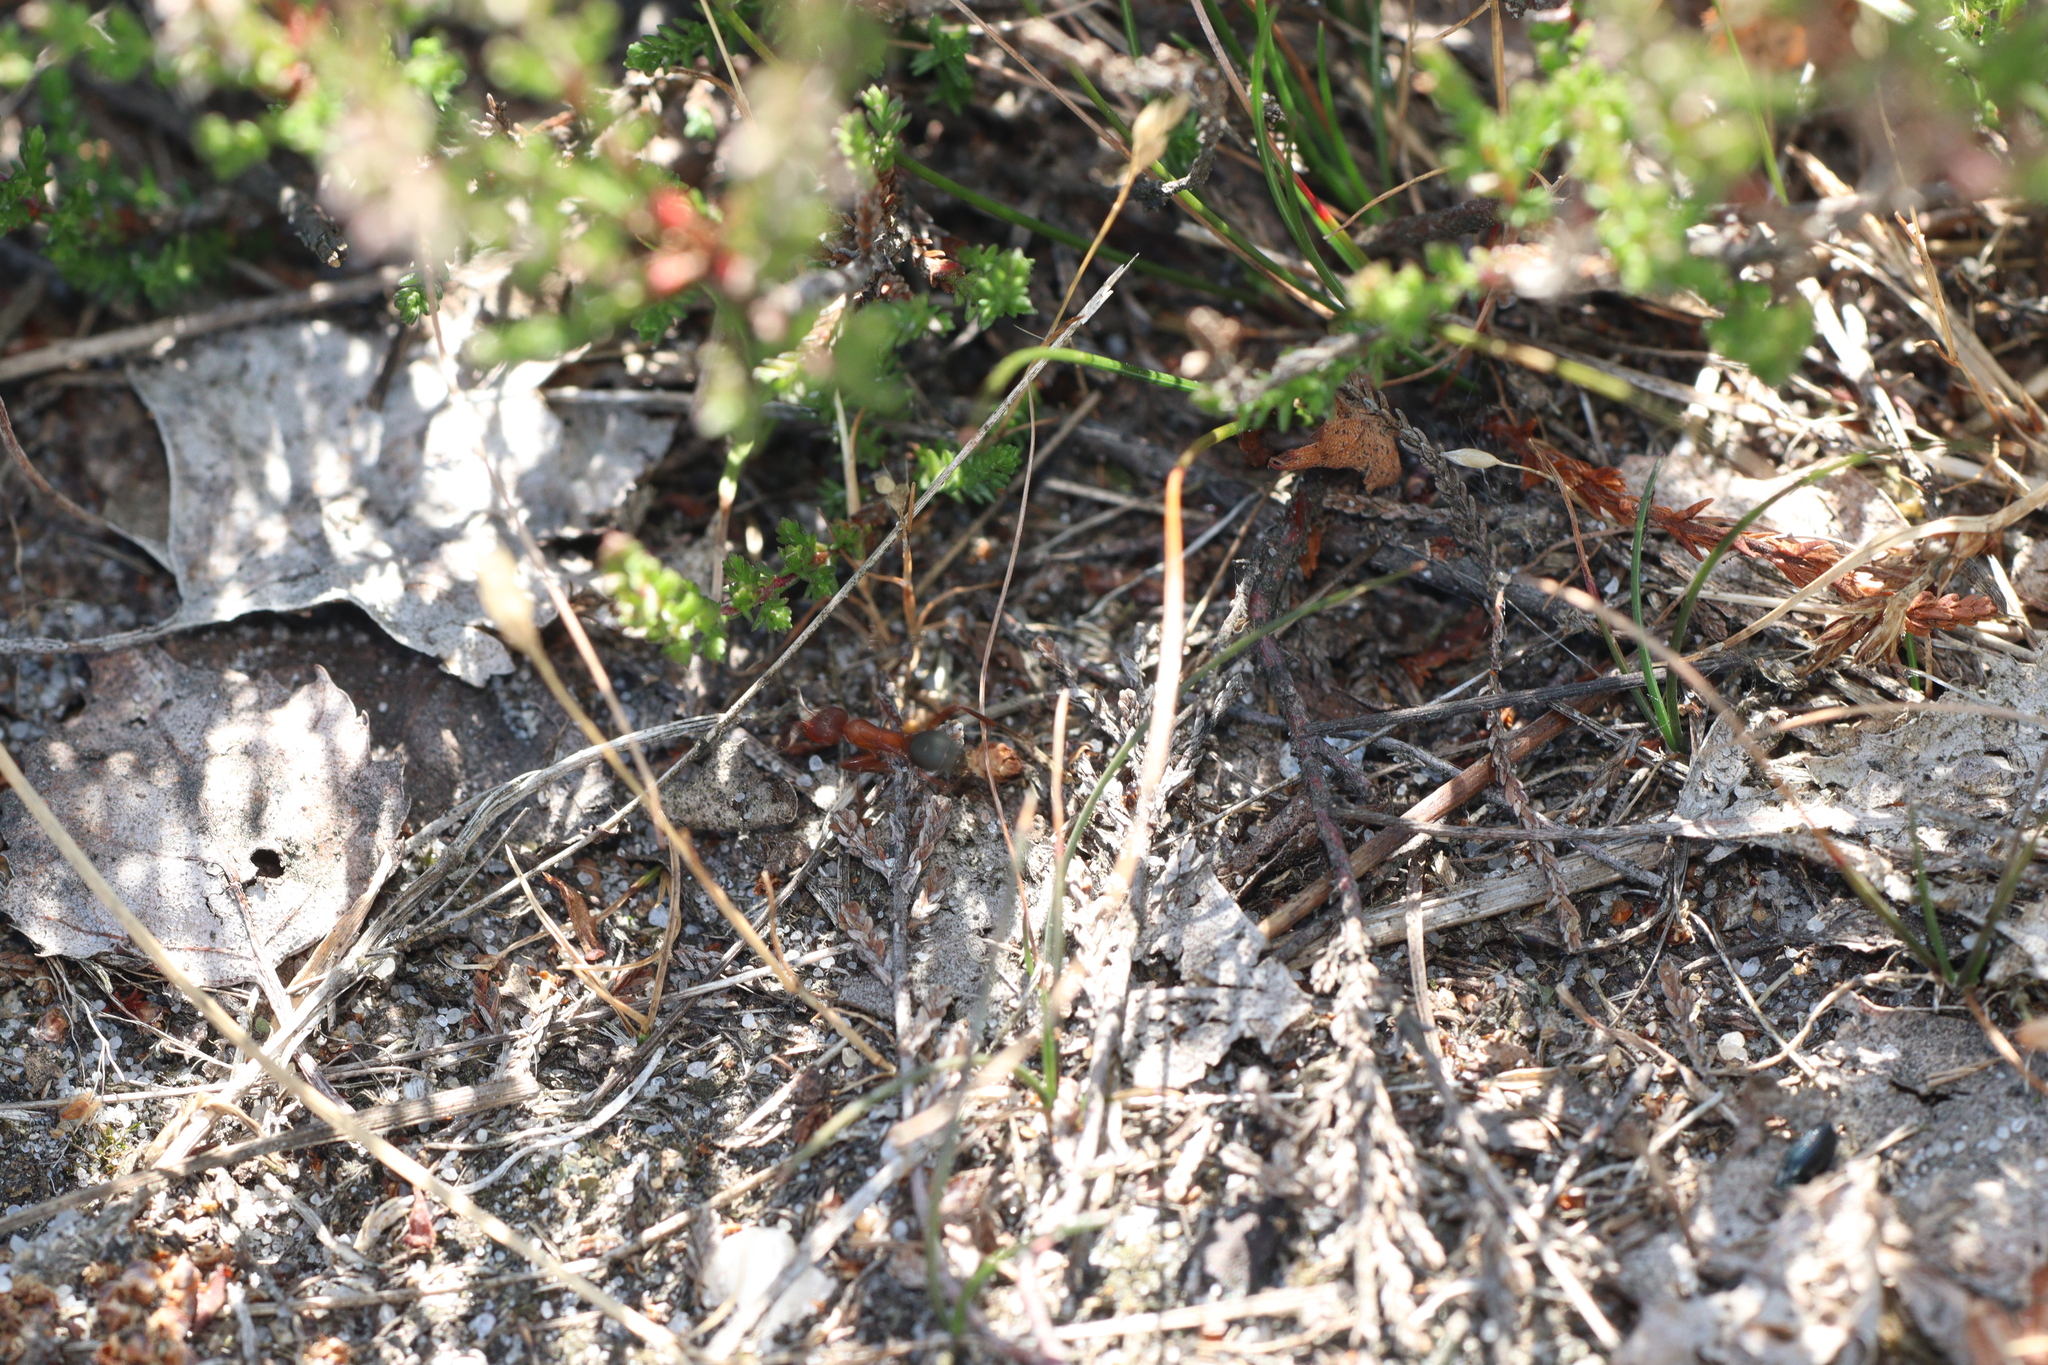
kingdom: Animalia
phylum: Arthropoda
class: Insecta
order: Hymenoptera
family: Formicidae
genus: Formica
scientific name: Formica sanguinea
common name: Blood-red ant
